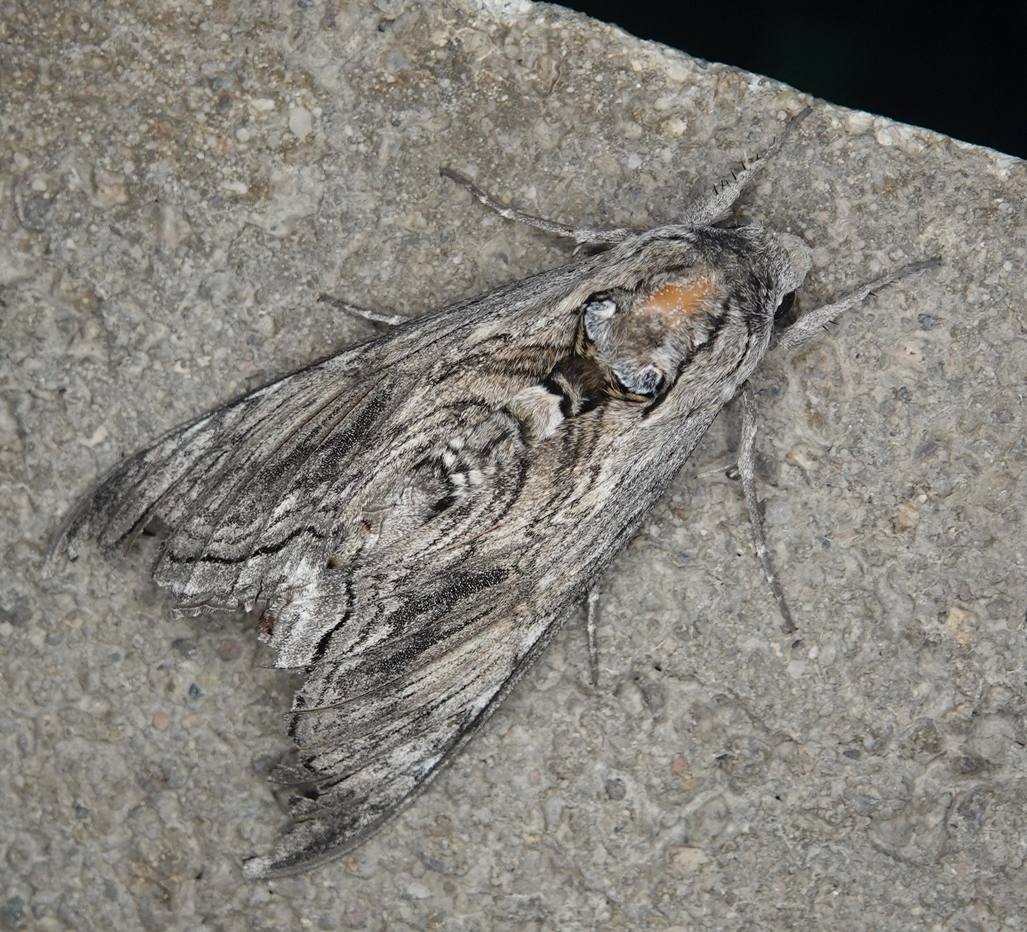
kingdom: Animalia
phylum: Arthropoda
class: Insecta
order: Lepidoptera
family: Sphingidae
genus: Manduca
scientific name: Manduca quinquemaculatus
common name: Five-spotted hawk-moth
